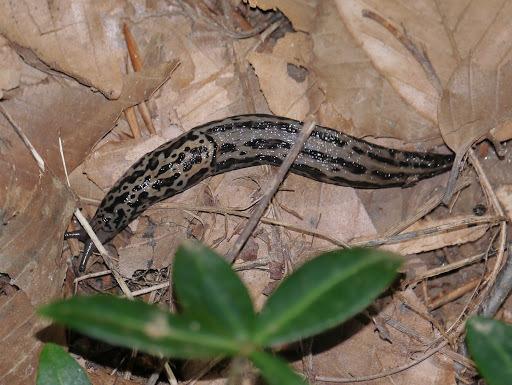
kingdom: Animalia
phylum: Mollusca
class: Gastropoda
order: Stylommatophora
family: Limacidae
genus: Limax
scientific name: Limax maximus
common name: Great grey slug
